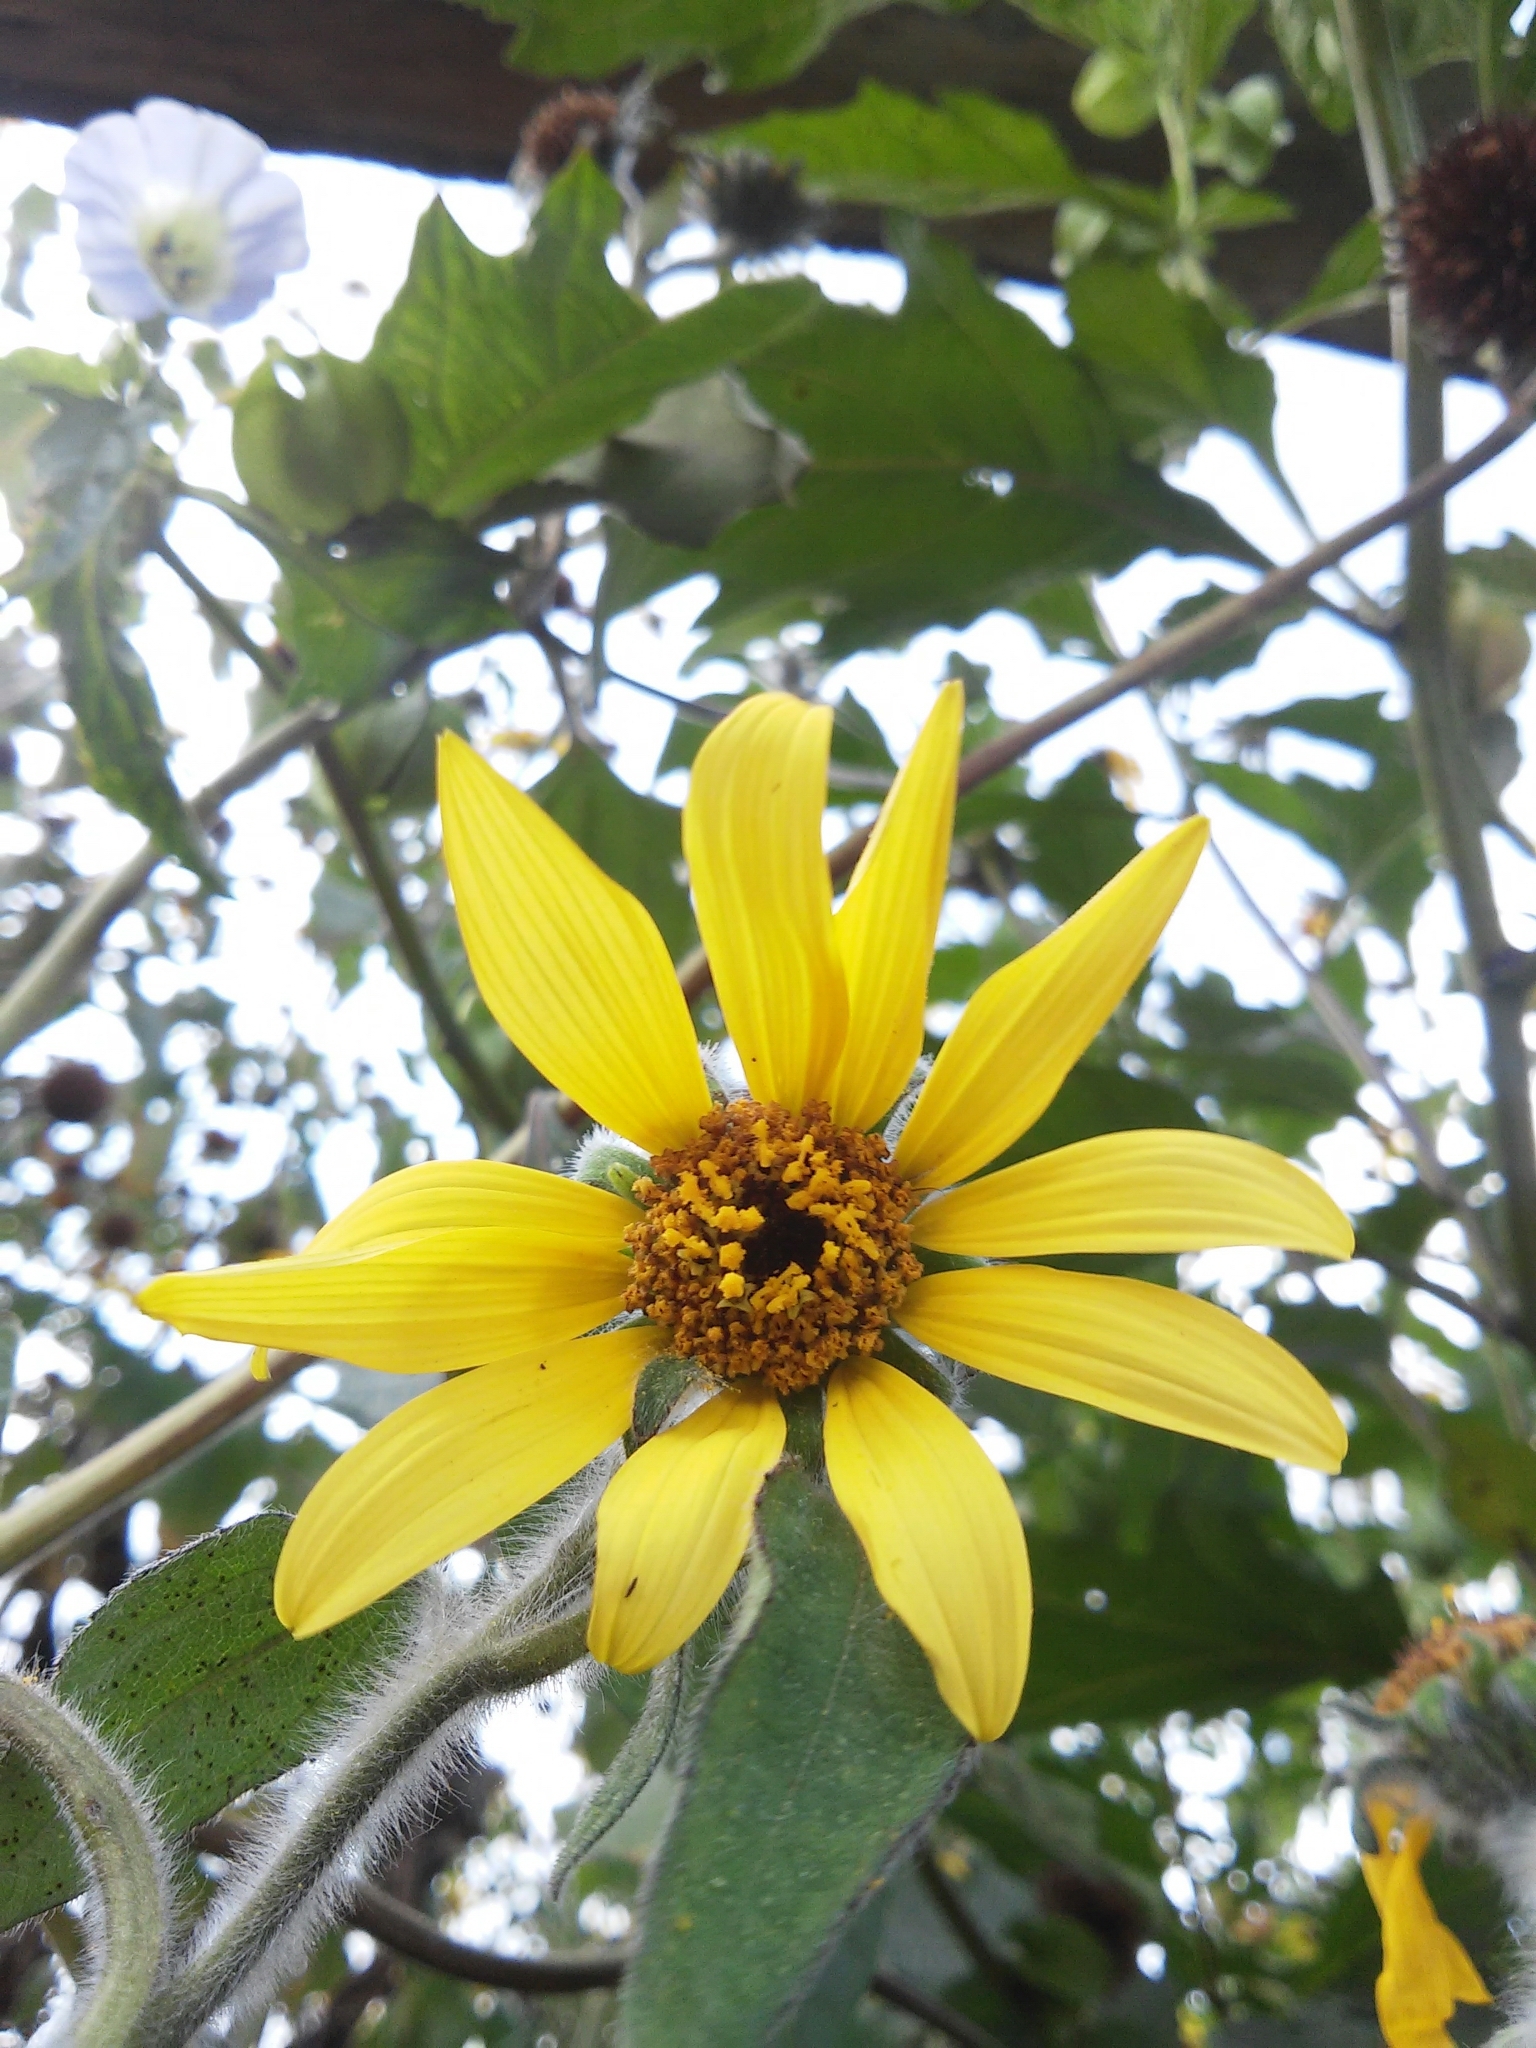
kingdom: Plantae
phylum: Tracheophyta
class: Magnoliopsida
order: Asterales
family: Asteraceae
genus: Tithonia
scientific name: Tithonia tubaeformis
